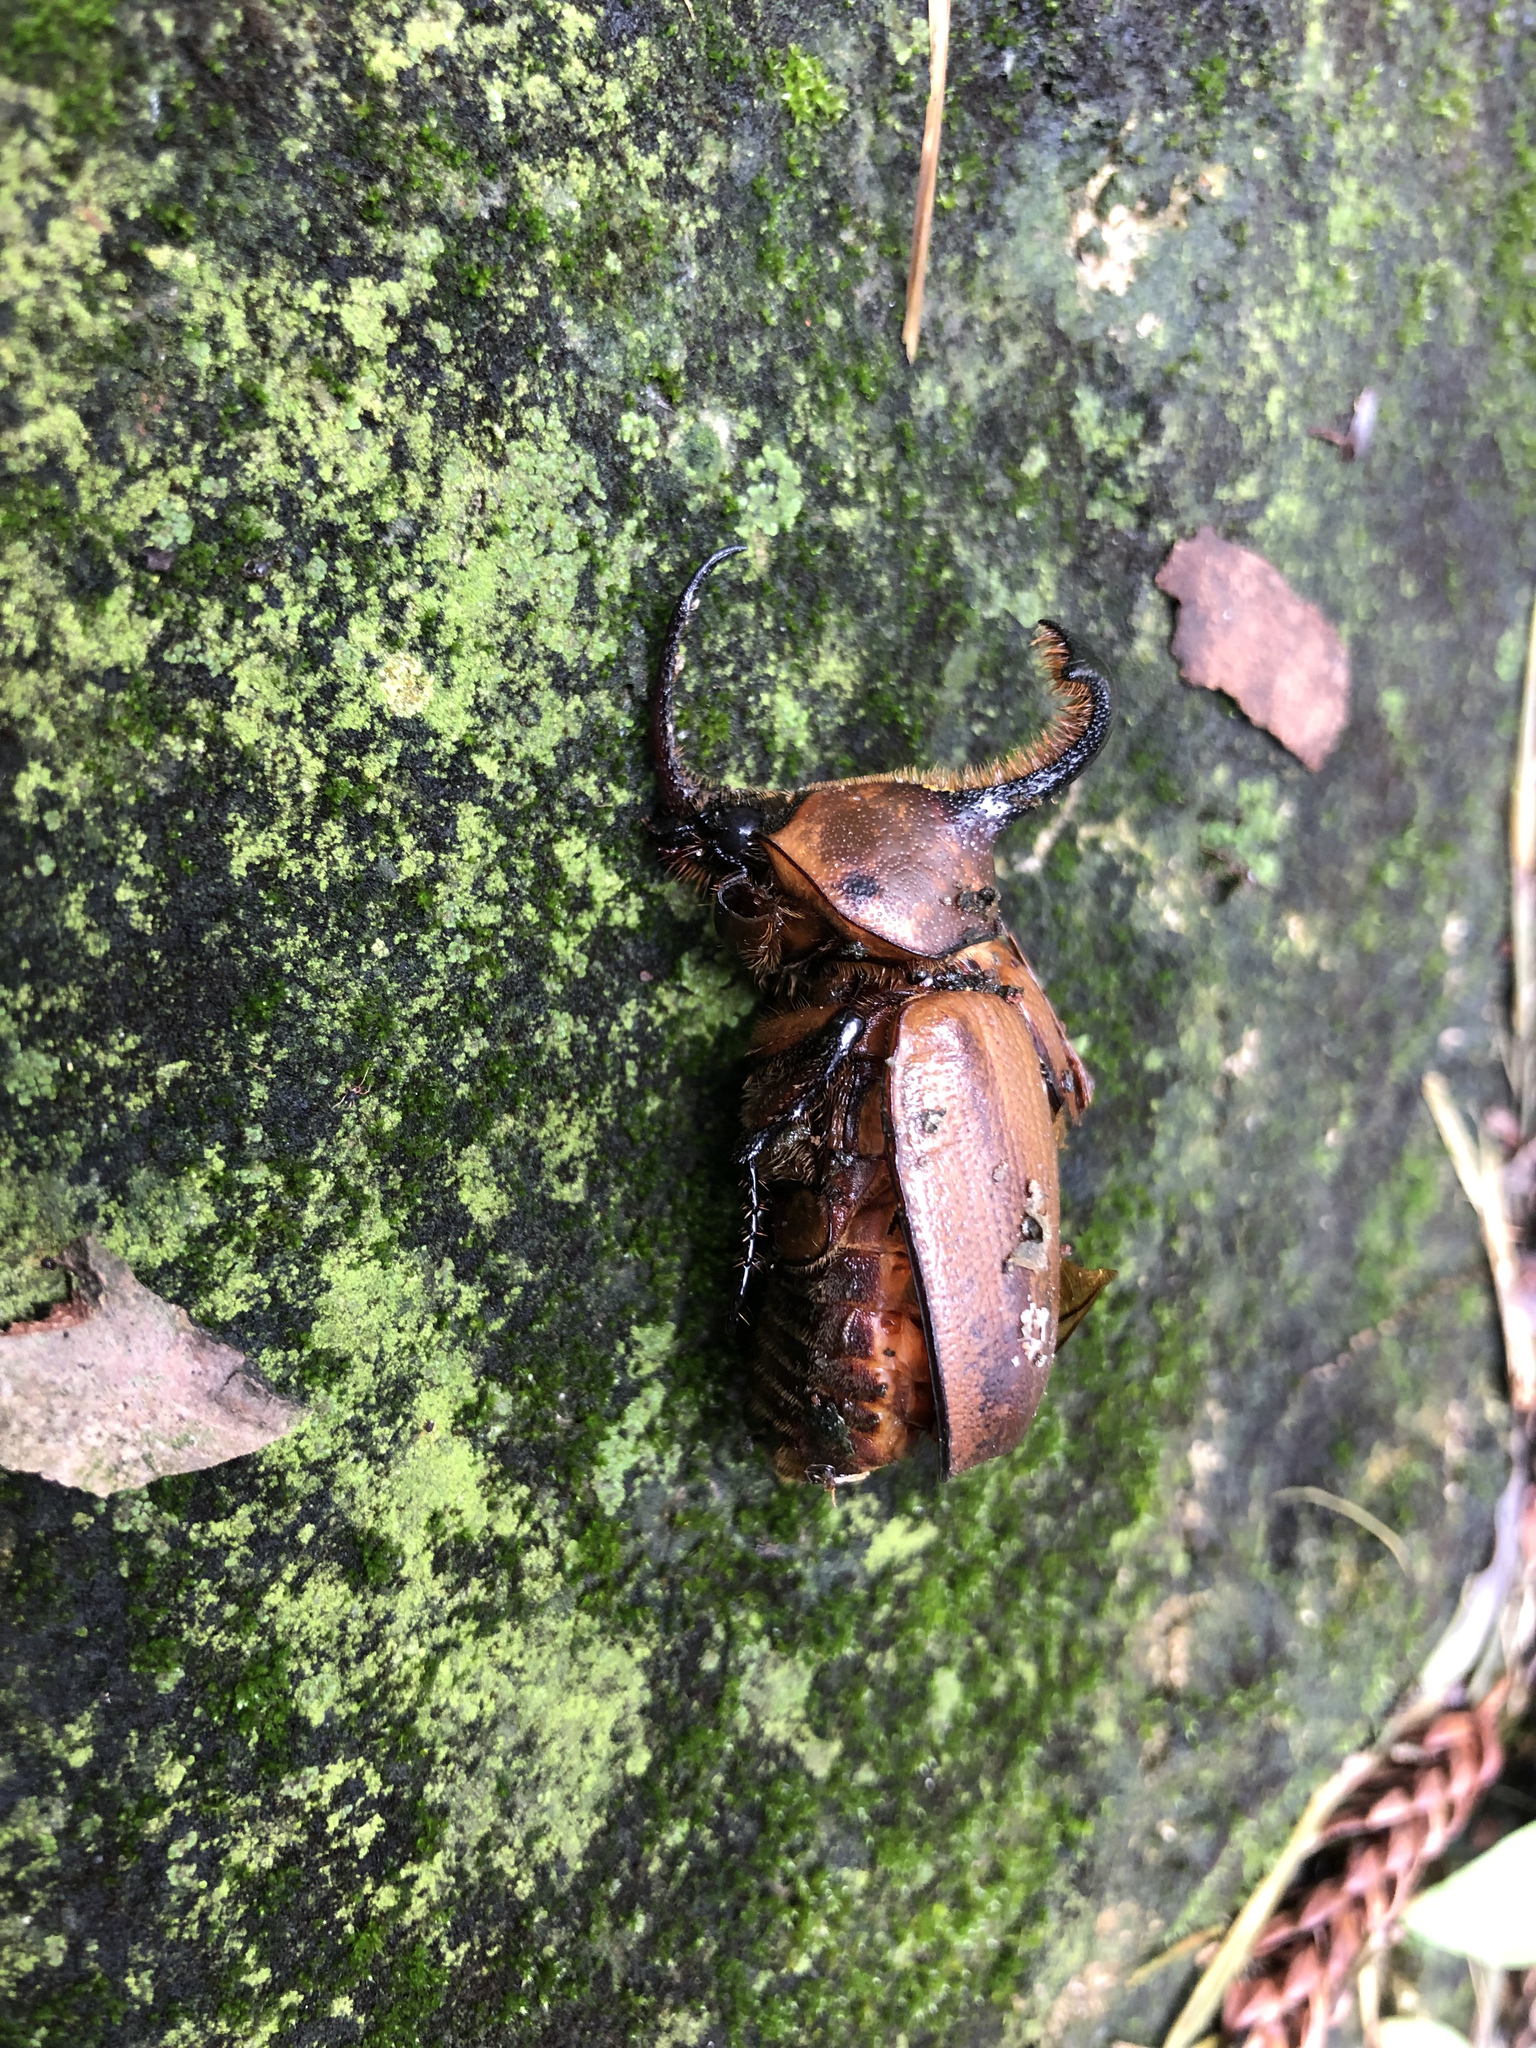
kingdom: Animalia
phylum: Arthropoda
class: Insecta
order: Coleoptera
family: Scarabaeidae
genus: Golofa
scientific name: Golofa pizarro
